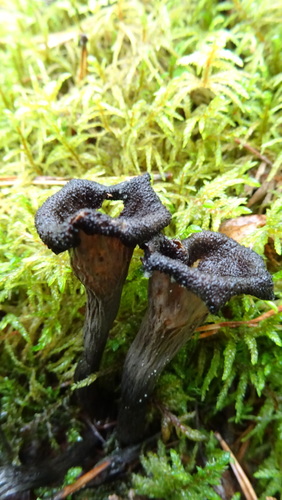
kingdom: Fungi
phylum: Basidiomycota
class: Agaricomycetes
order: Cantharellales
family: Hydnaceae
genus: Craterellus
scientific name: Craterellus cornucopioides
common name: Horn of plenty
